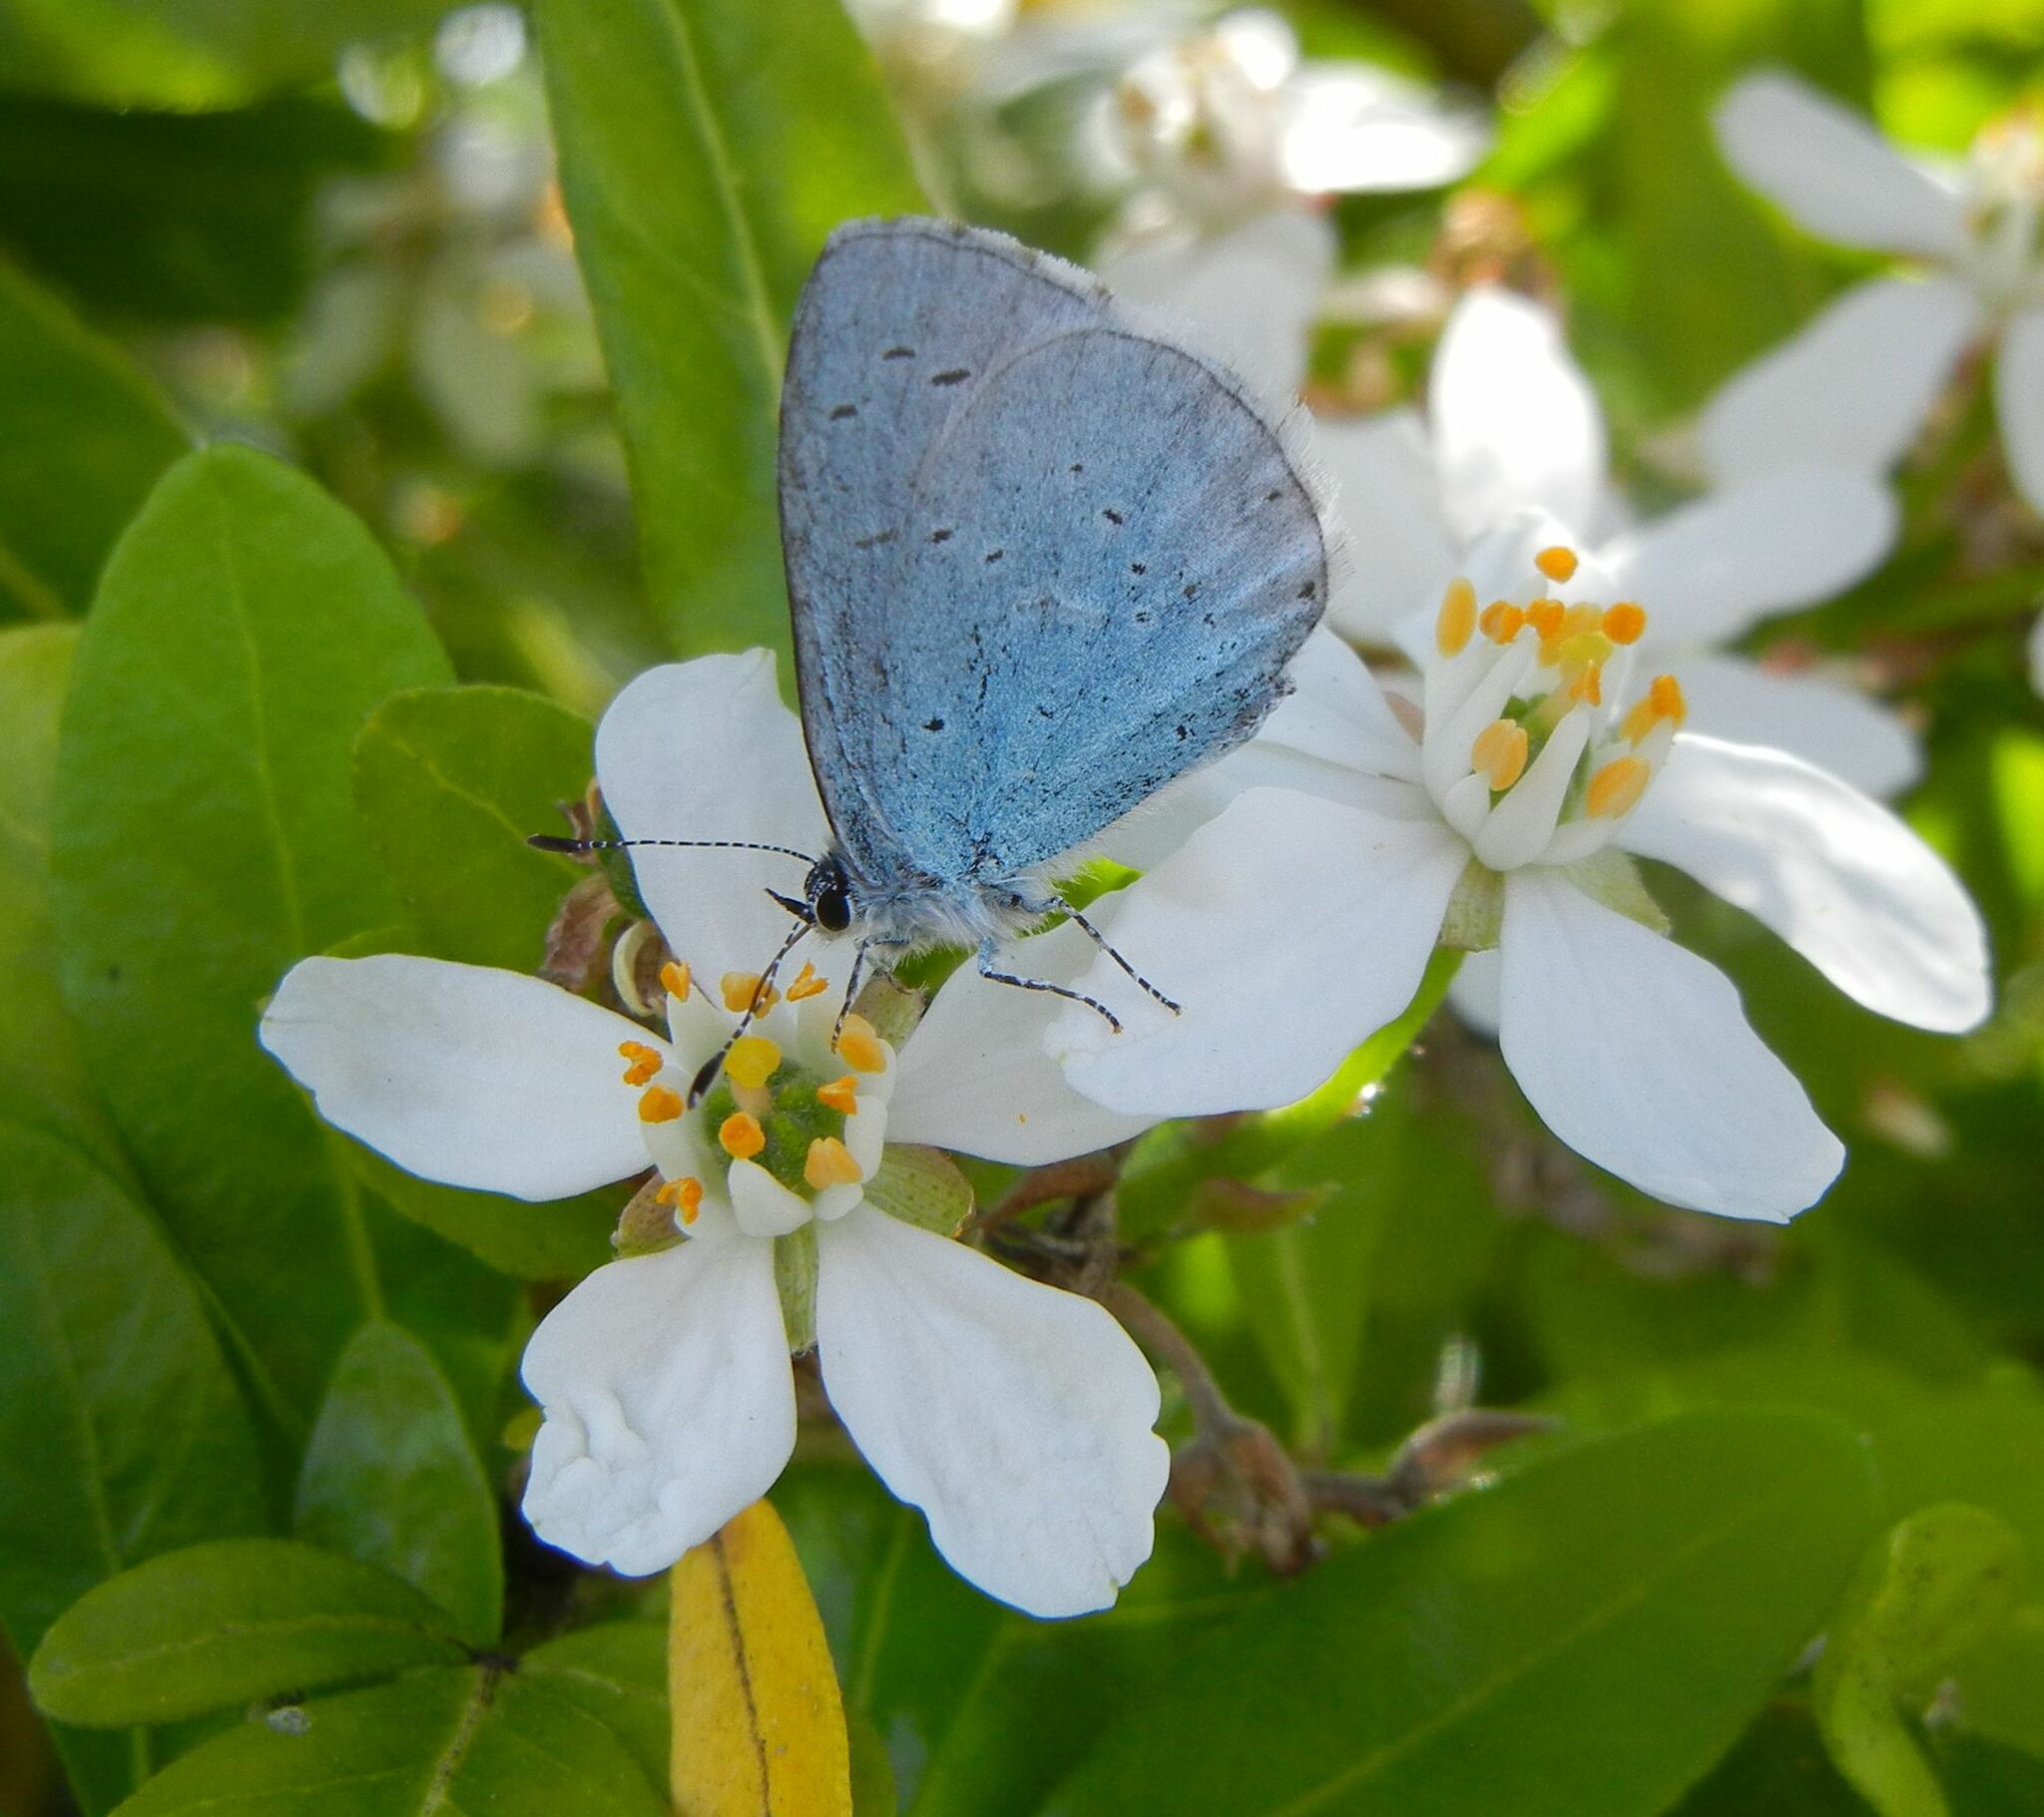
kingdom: Animalia
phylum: Arthropoda
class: Insecta
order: Lepidoptera
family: Lycaenidae
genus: Celastrina
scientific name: Celastrina argiolus
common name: Holly blue
